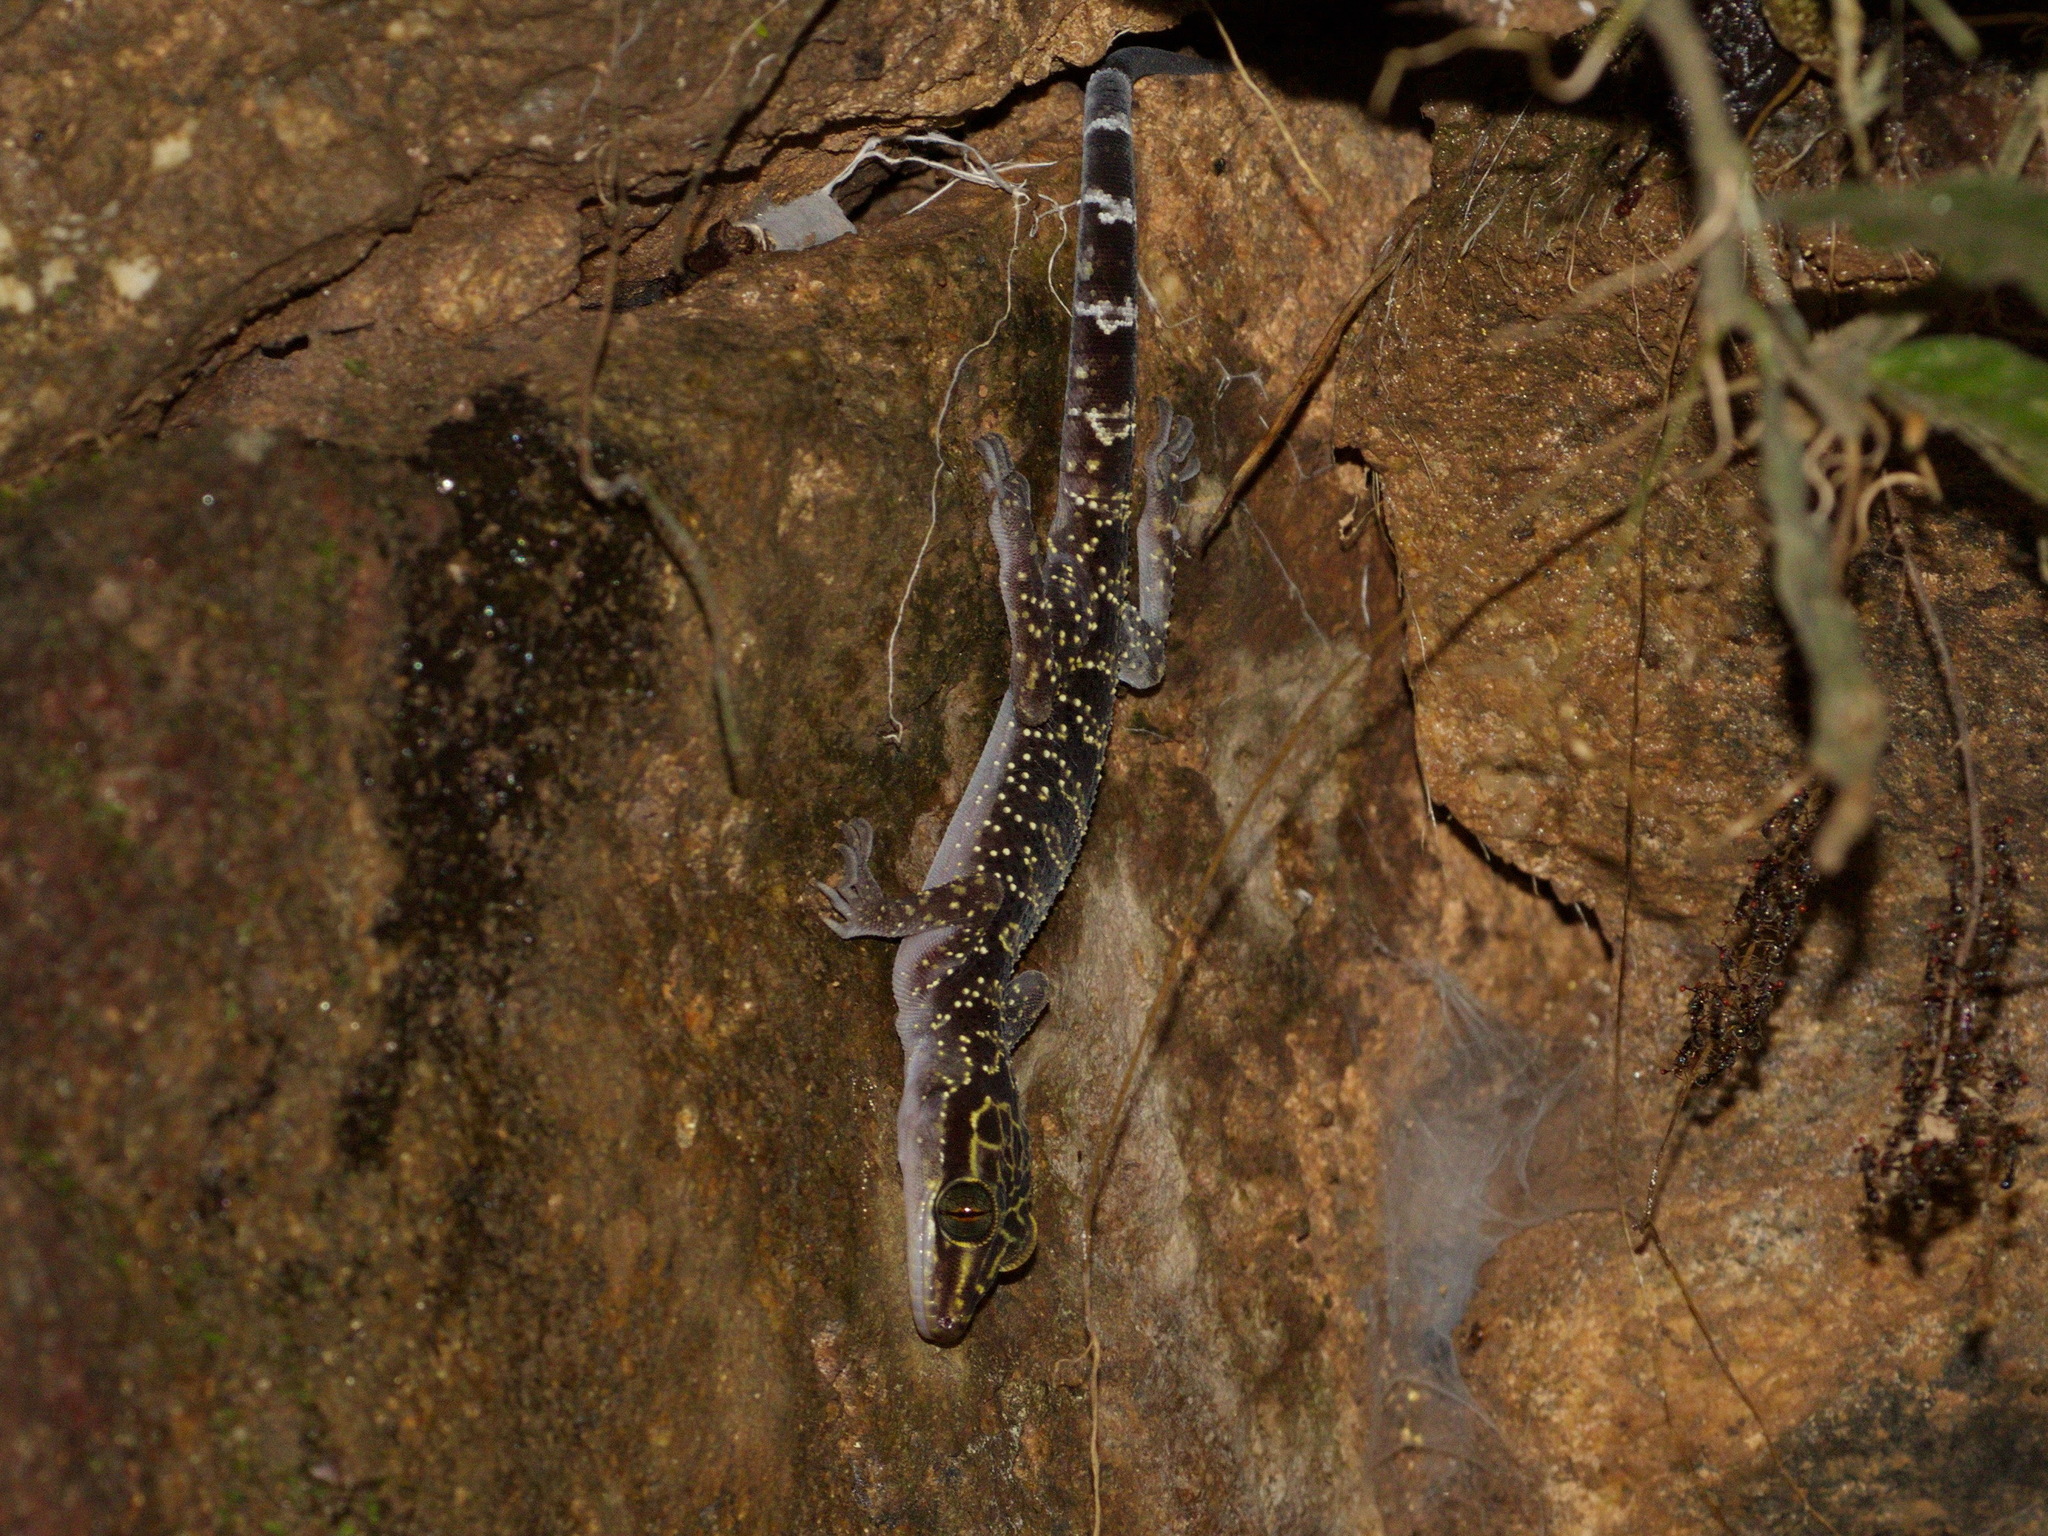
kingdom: Animalia
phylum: Chordata
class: Squamata
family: Gekkonidae
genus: Cyrtodactylus
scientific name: Cyrtodactylus doisuthep
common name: Doi suthep bent-toed gecko
